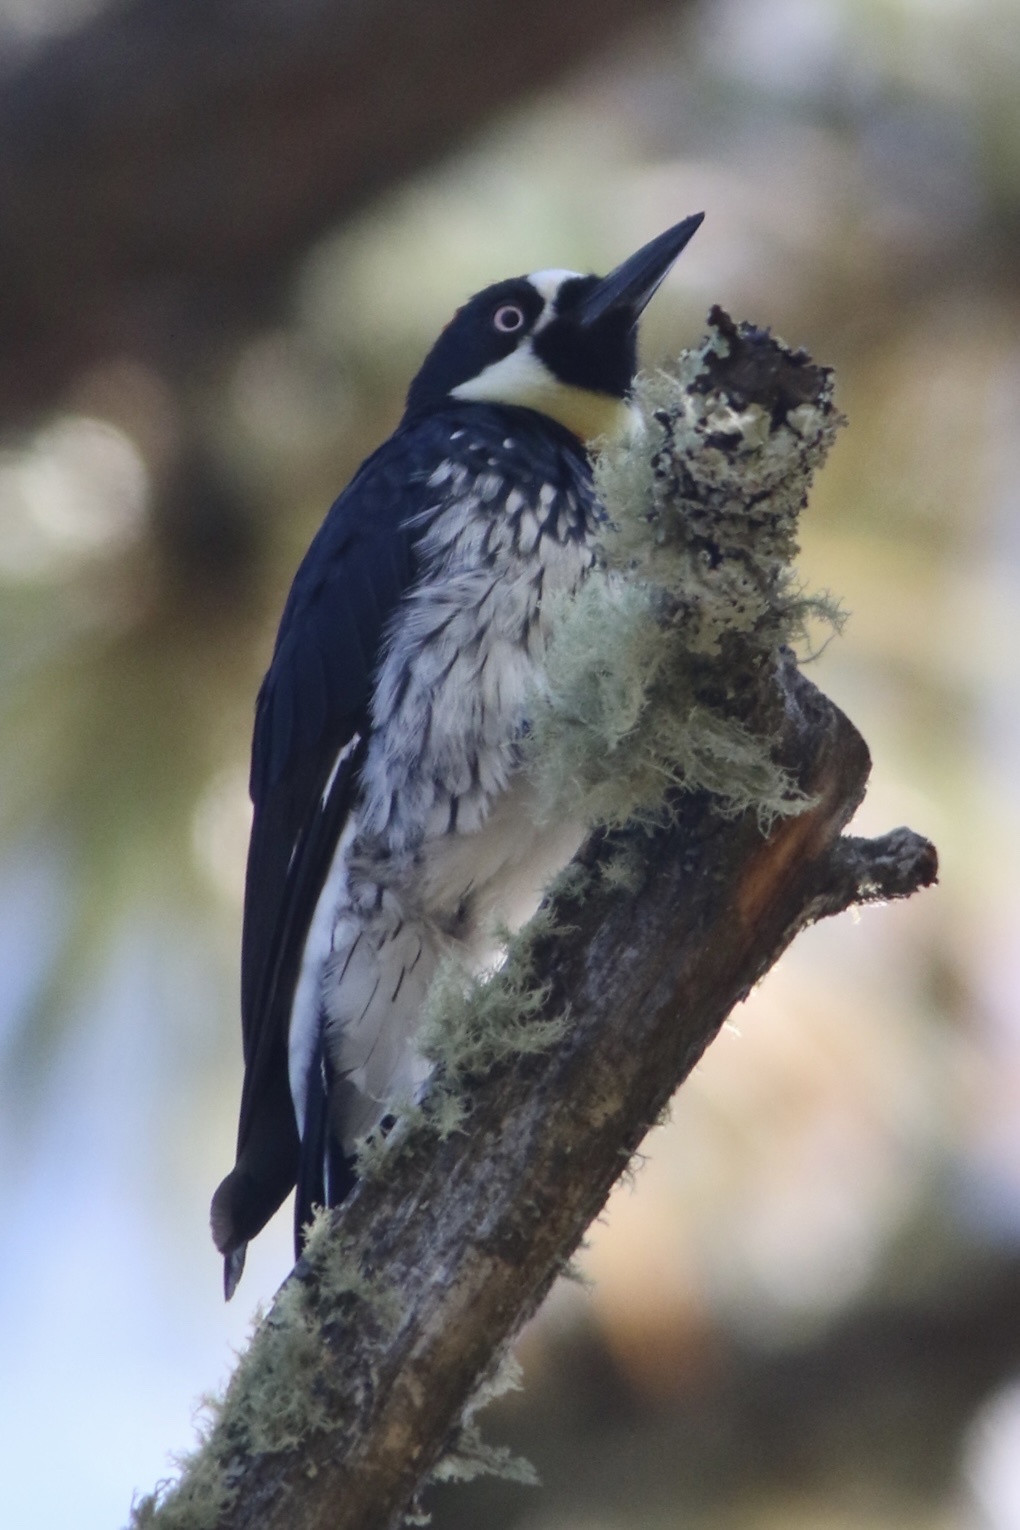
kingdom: Animalia
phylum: Chordata
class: Aves
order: Piciformes
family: Picidae
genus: Melanerpes
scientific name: Melanerpes formicivorus
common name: Acorn woodpecker
